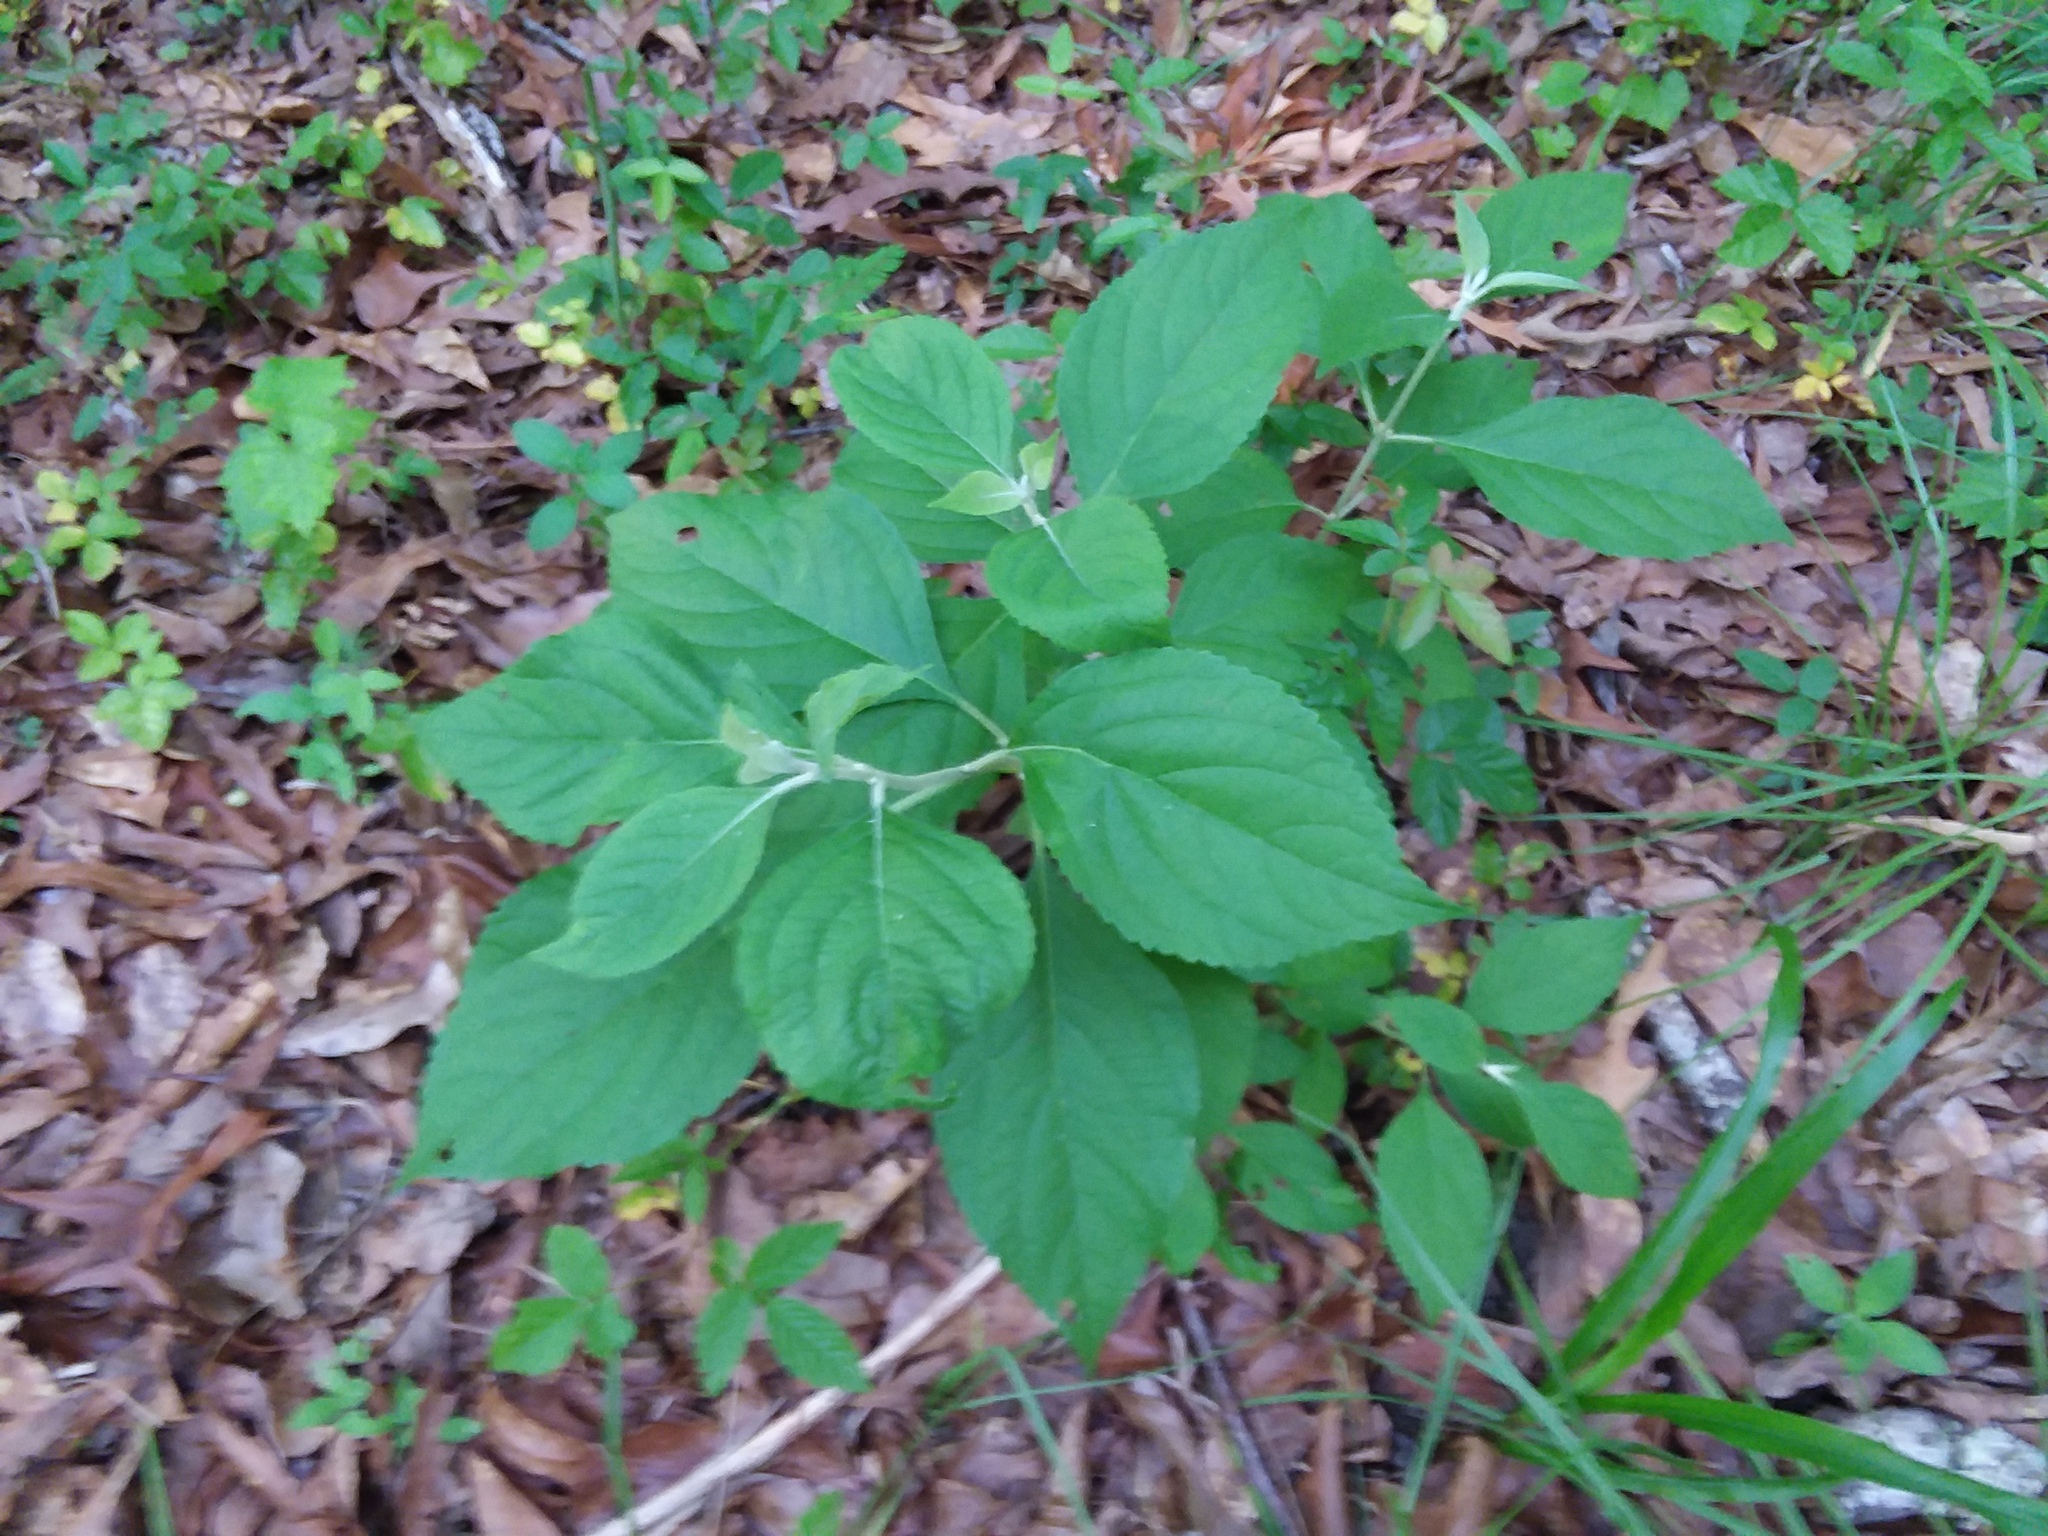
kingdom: Plantae
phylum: Tracheophyta
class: Magnoliopsida
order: Lamiales
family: Lamiaceae
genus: Callicarpa
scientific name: Callicarpa americana
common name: American beautyberry
